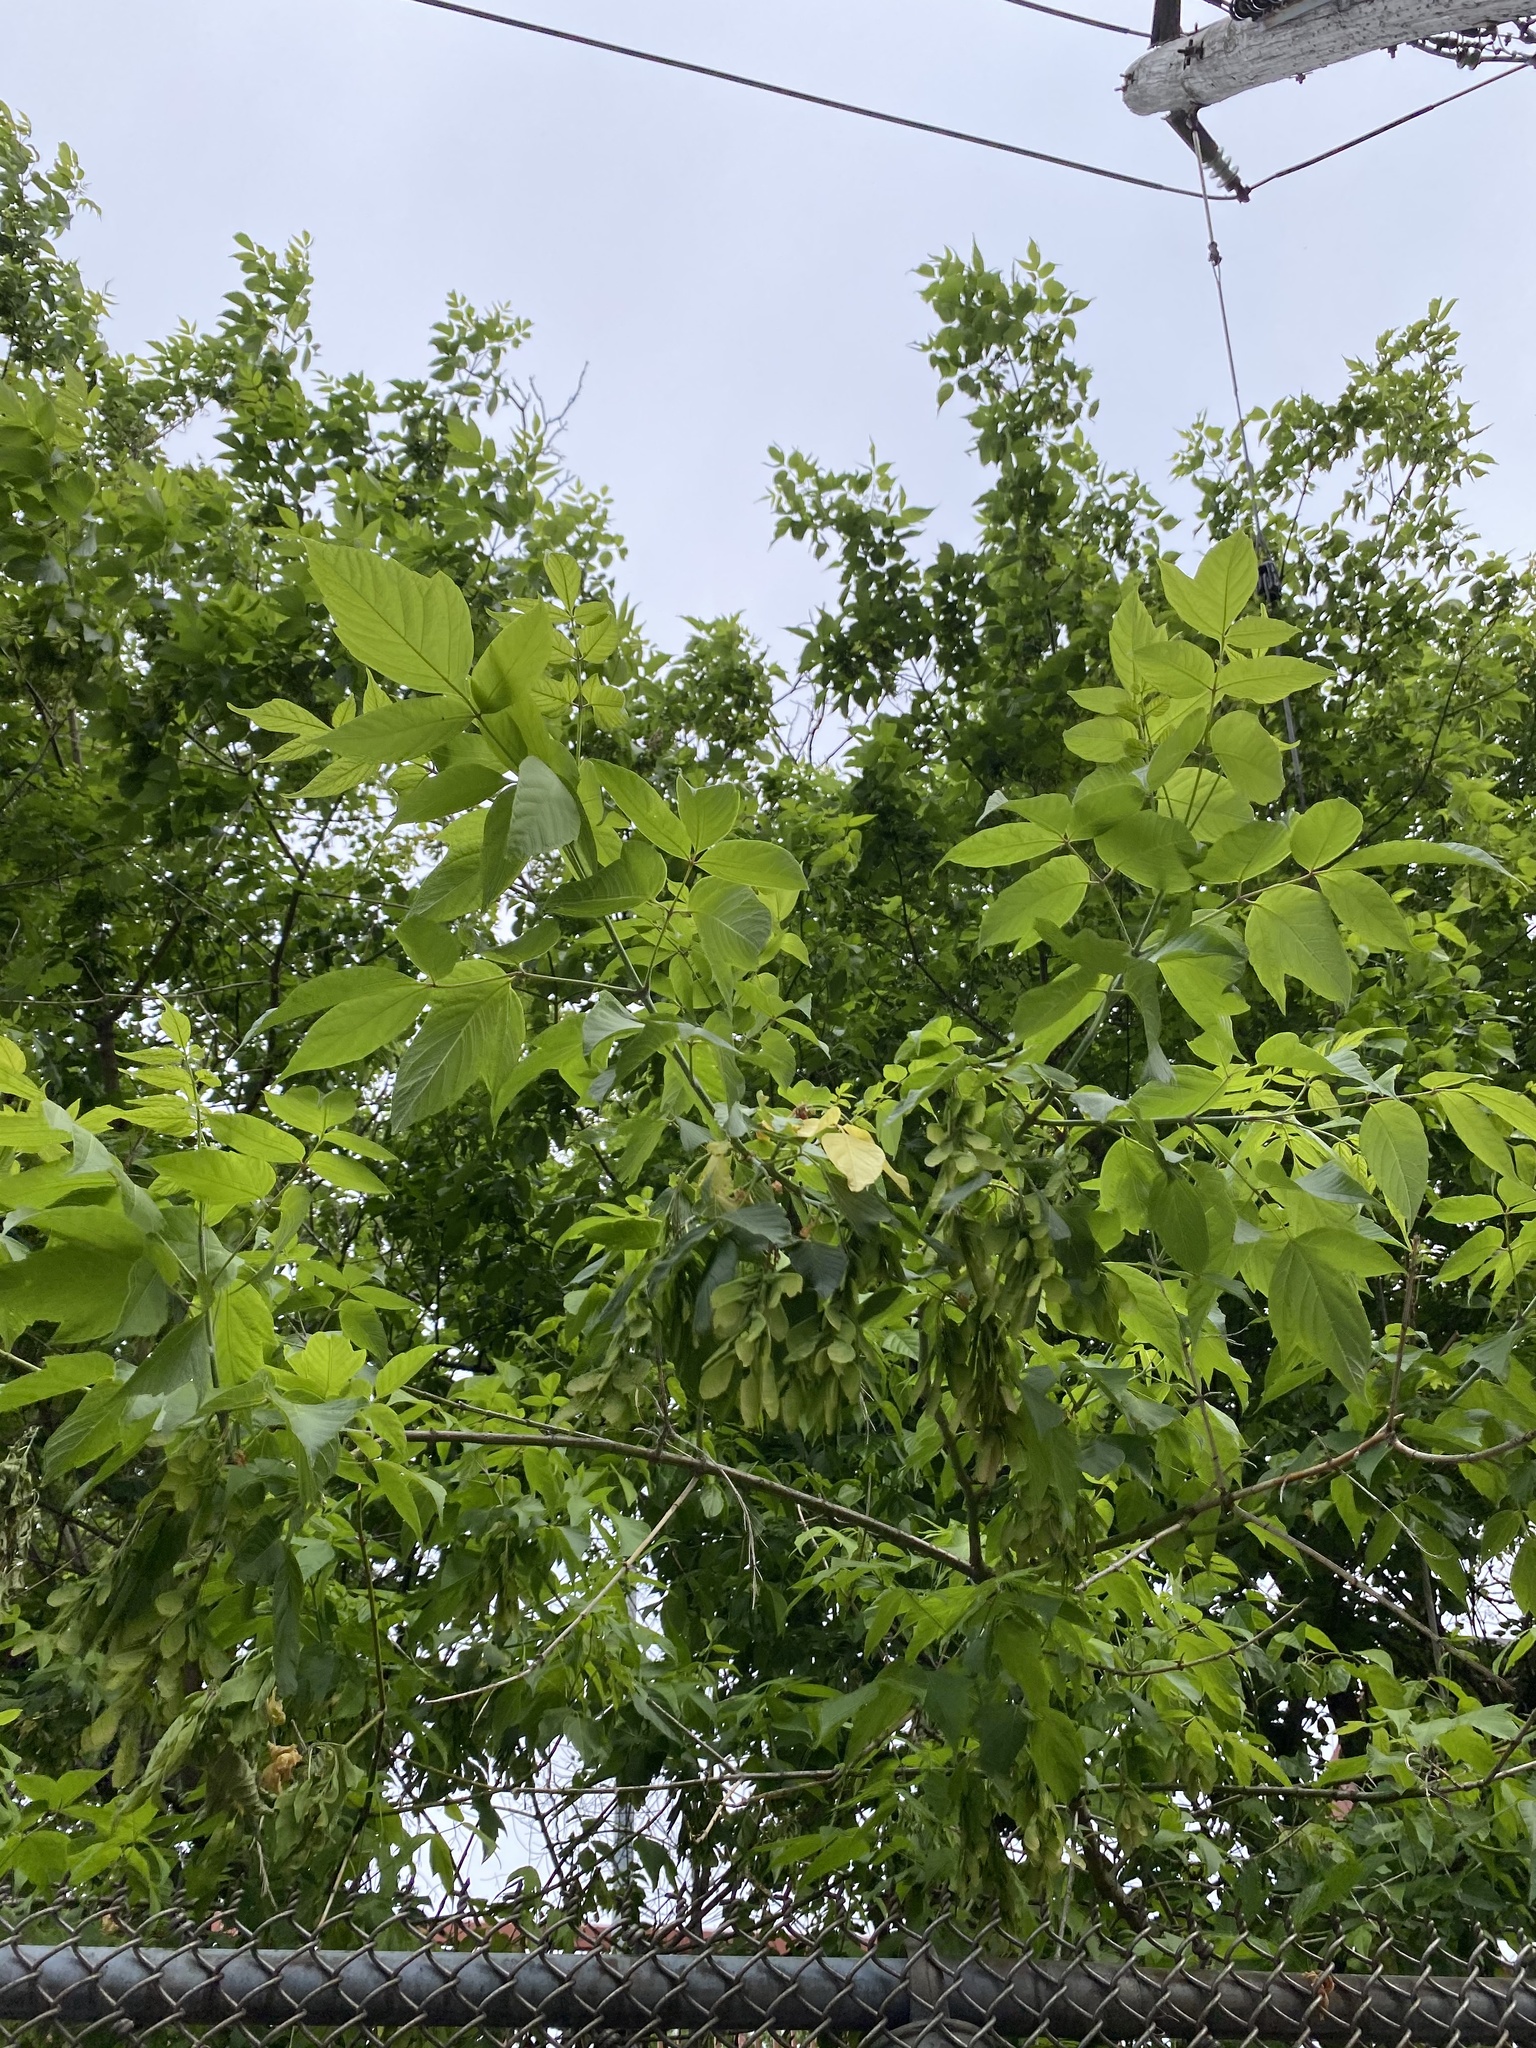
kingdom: Plantae
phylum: Tracheophyta
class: Magnoliopsida
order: Sapindales
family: Sapindaceae
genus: Acer
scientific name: Acer negundo
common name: Ashleaf maple
